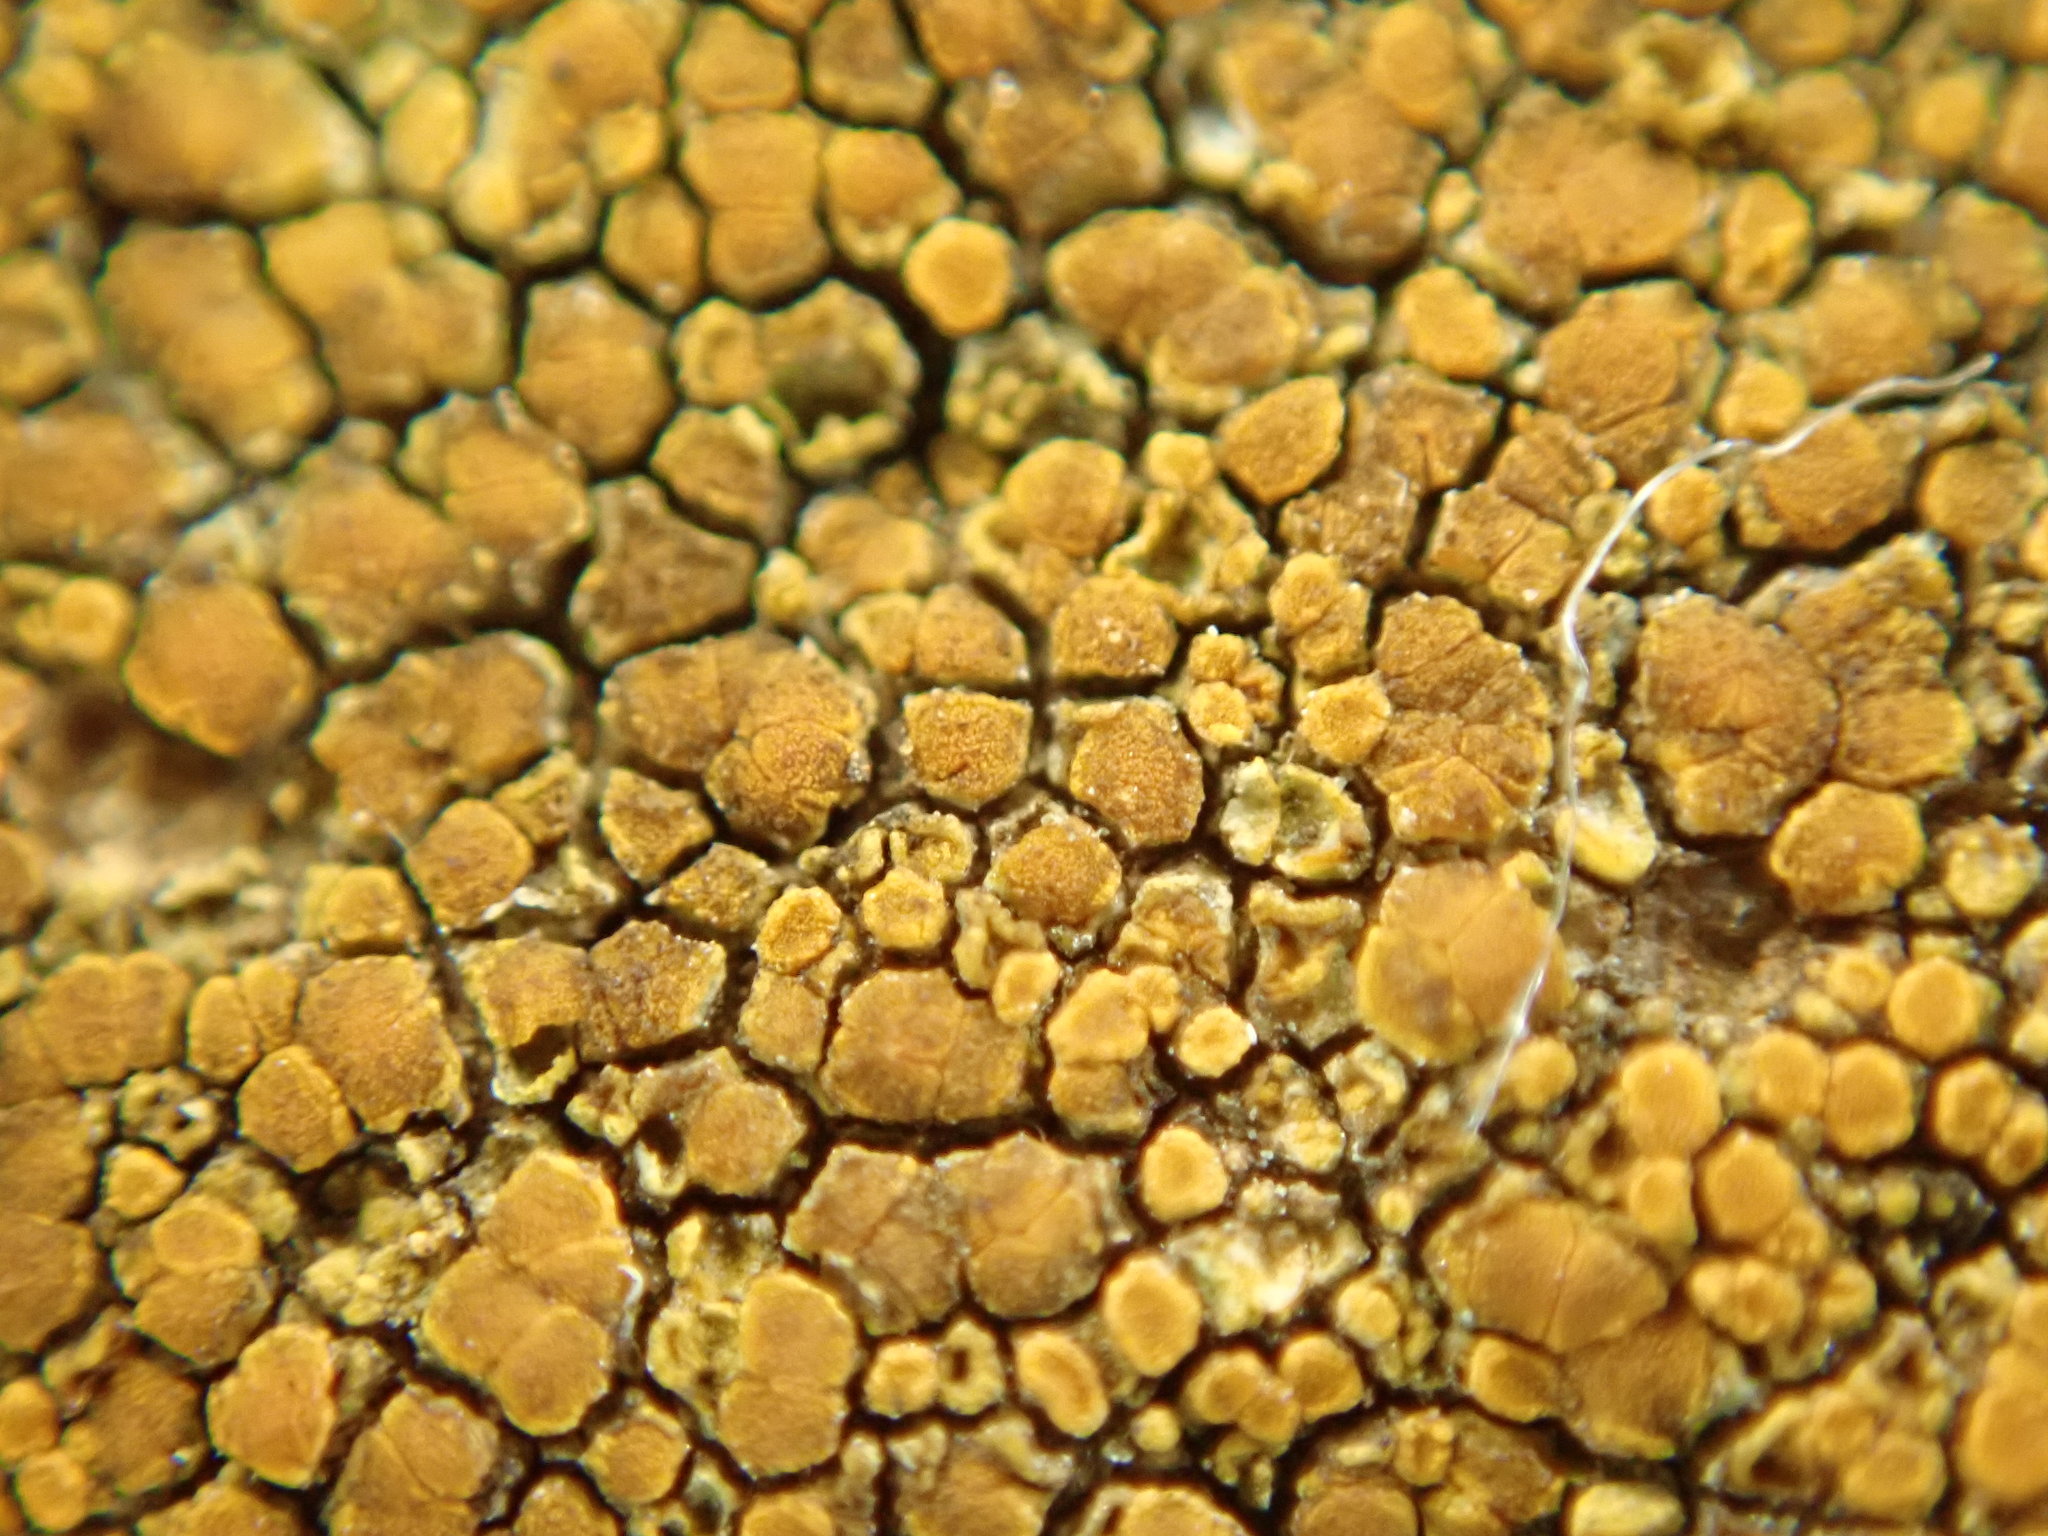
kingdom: Fungi
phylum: Ascomycota
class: Lecanoromycetes
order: Teloschistales
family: Teloschistaceae
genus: Xanthocarpia
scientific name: Xanthocarpia feracissima
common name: Sidewalk firedot
